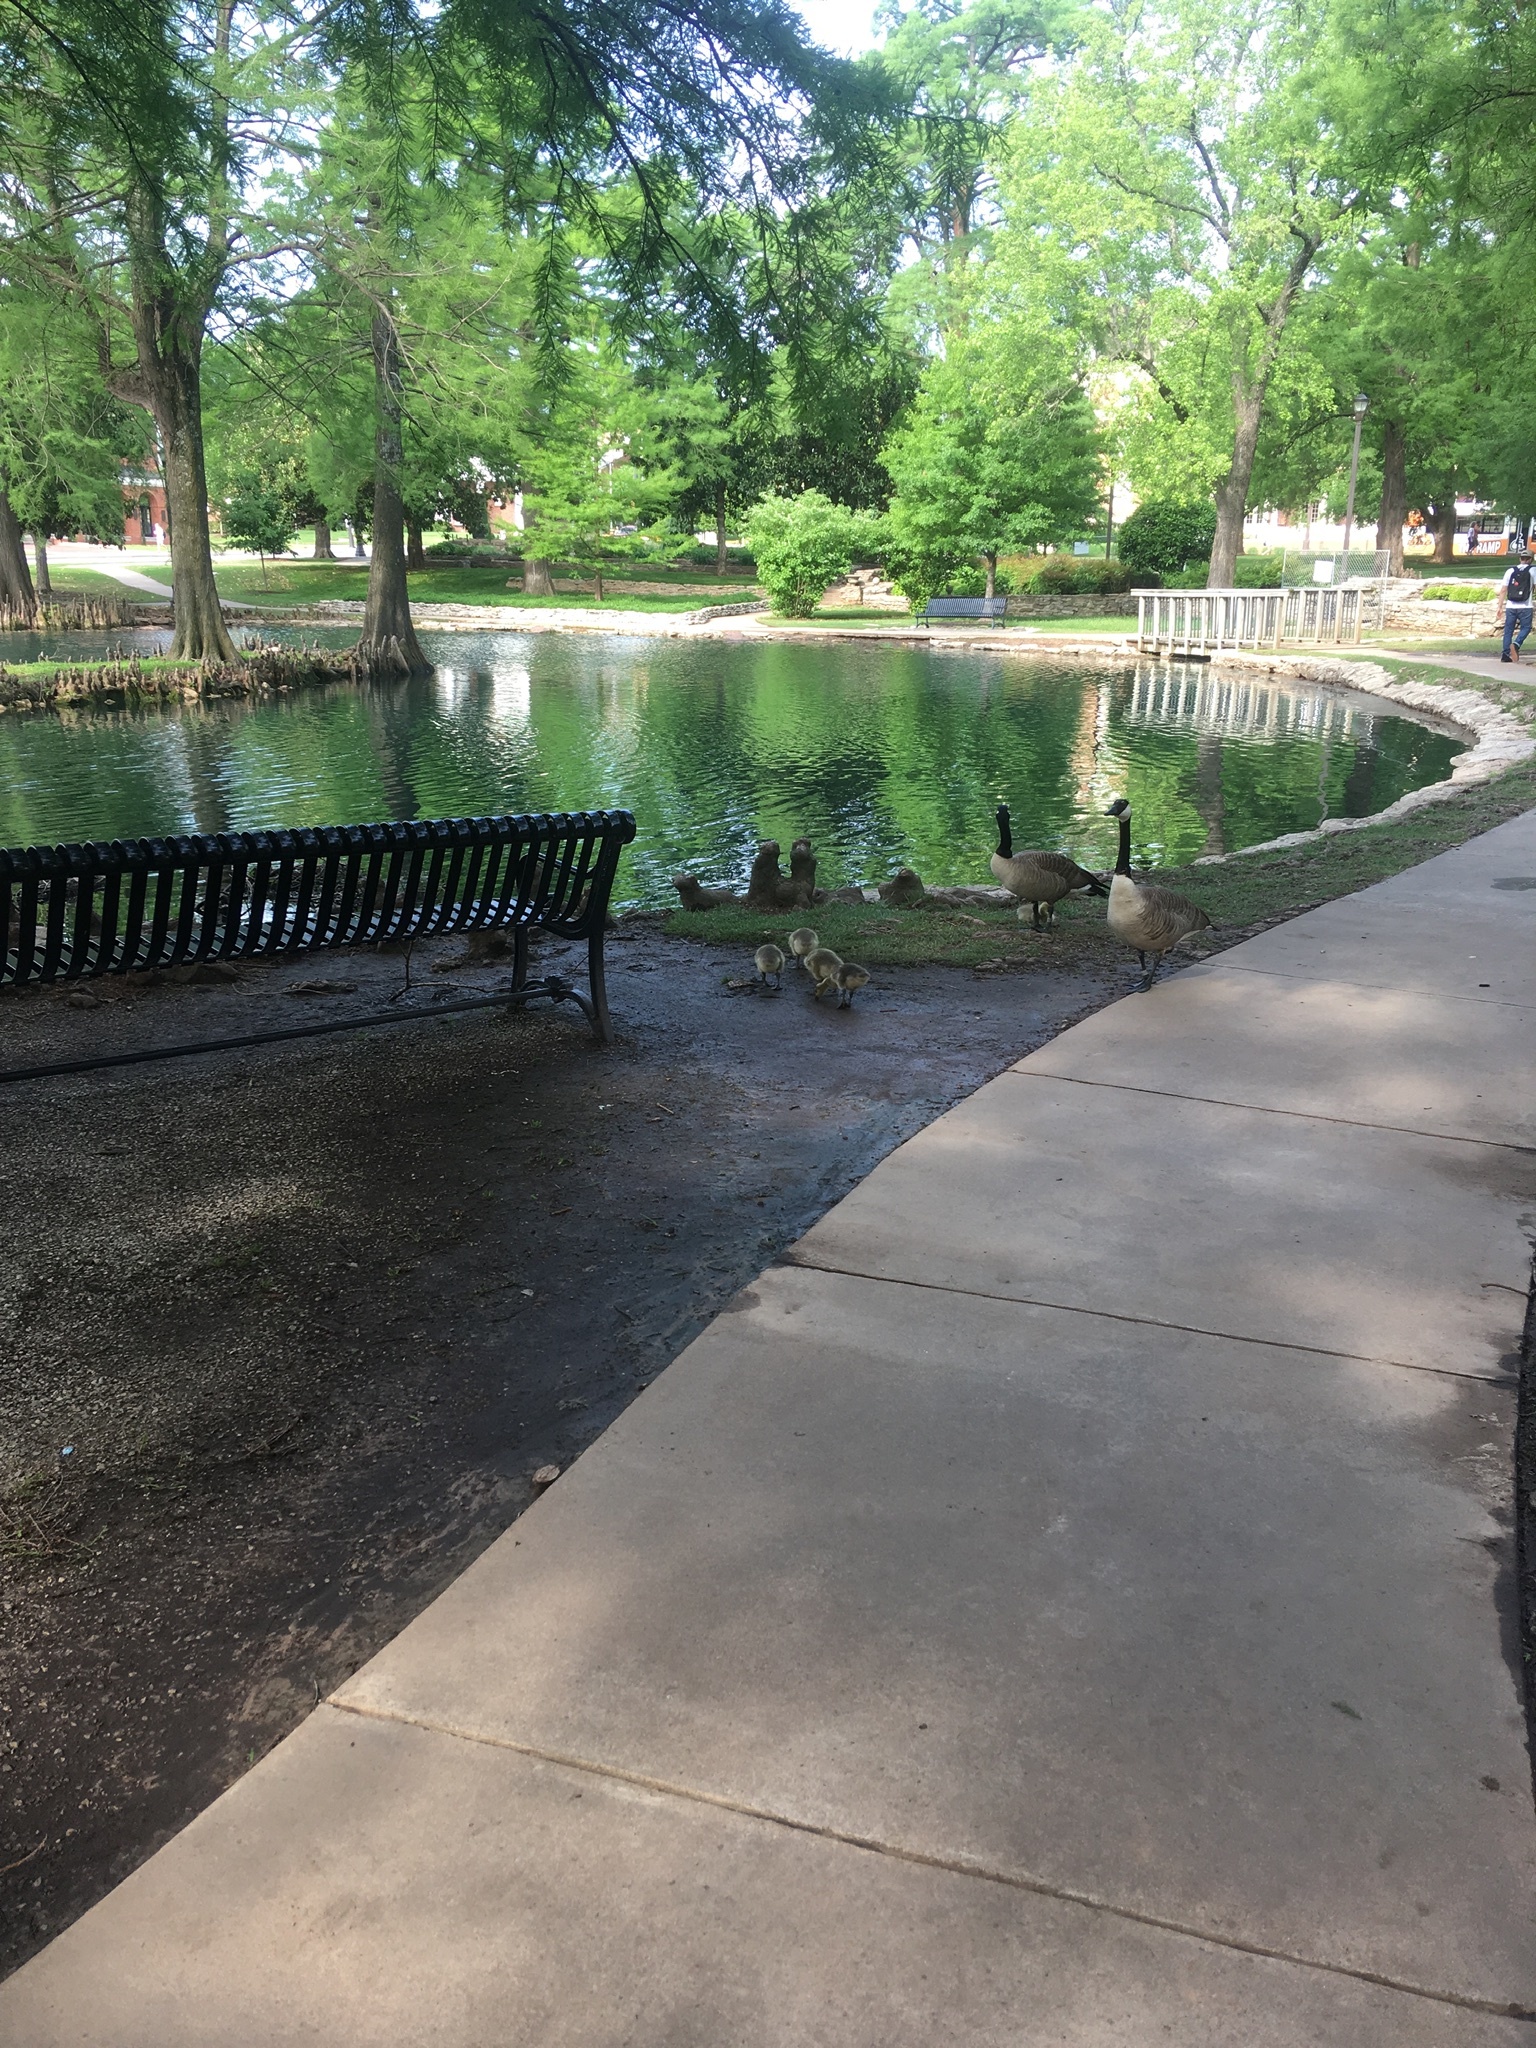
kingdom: Animalia
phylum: Chordata
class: Aves
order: Anseriformes
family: Anatidae
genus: Branta
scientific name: Branta canadensis
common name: Canada goose
